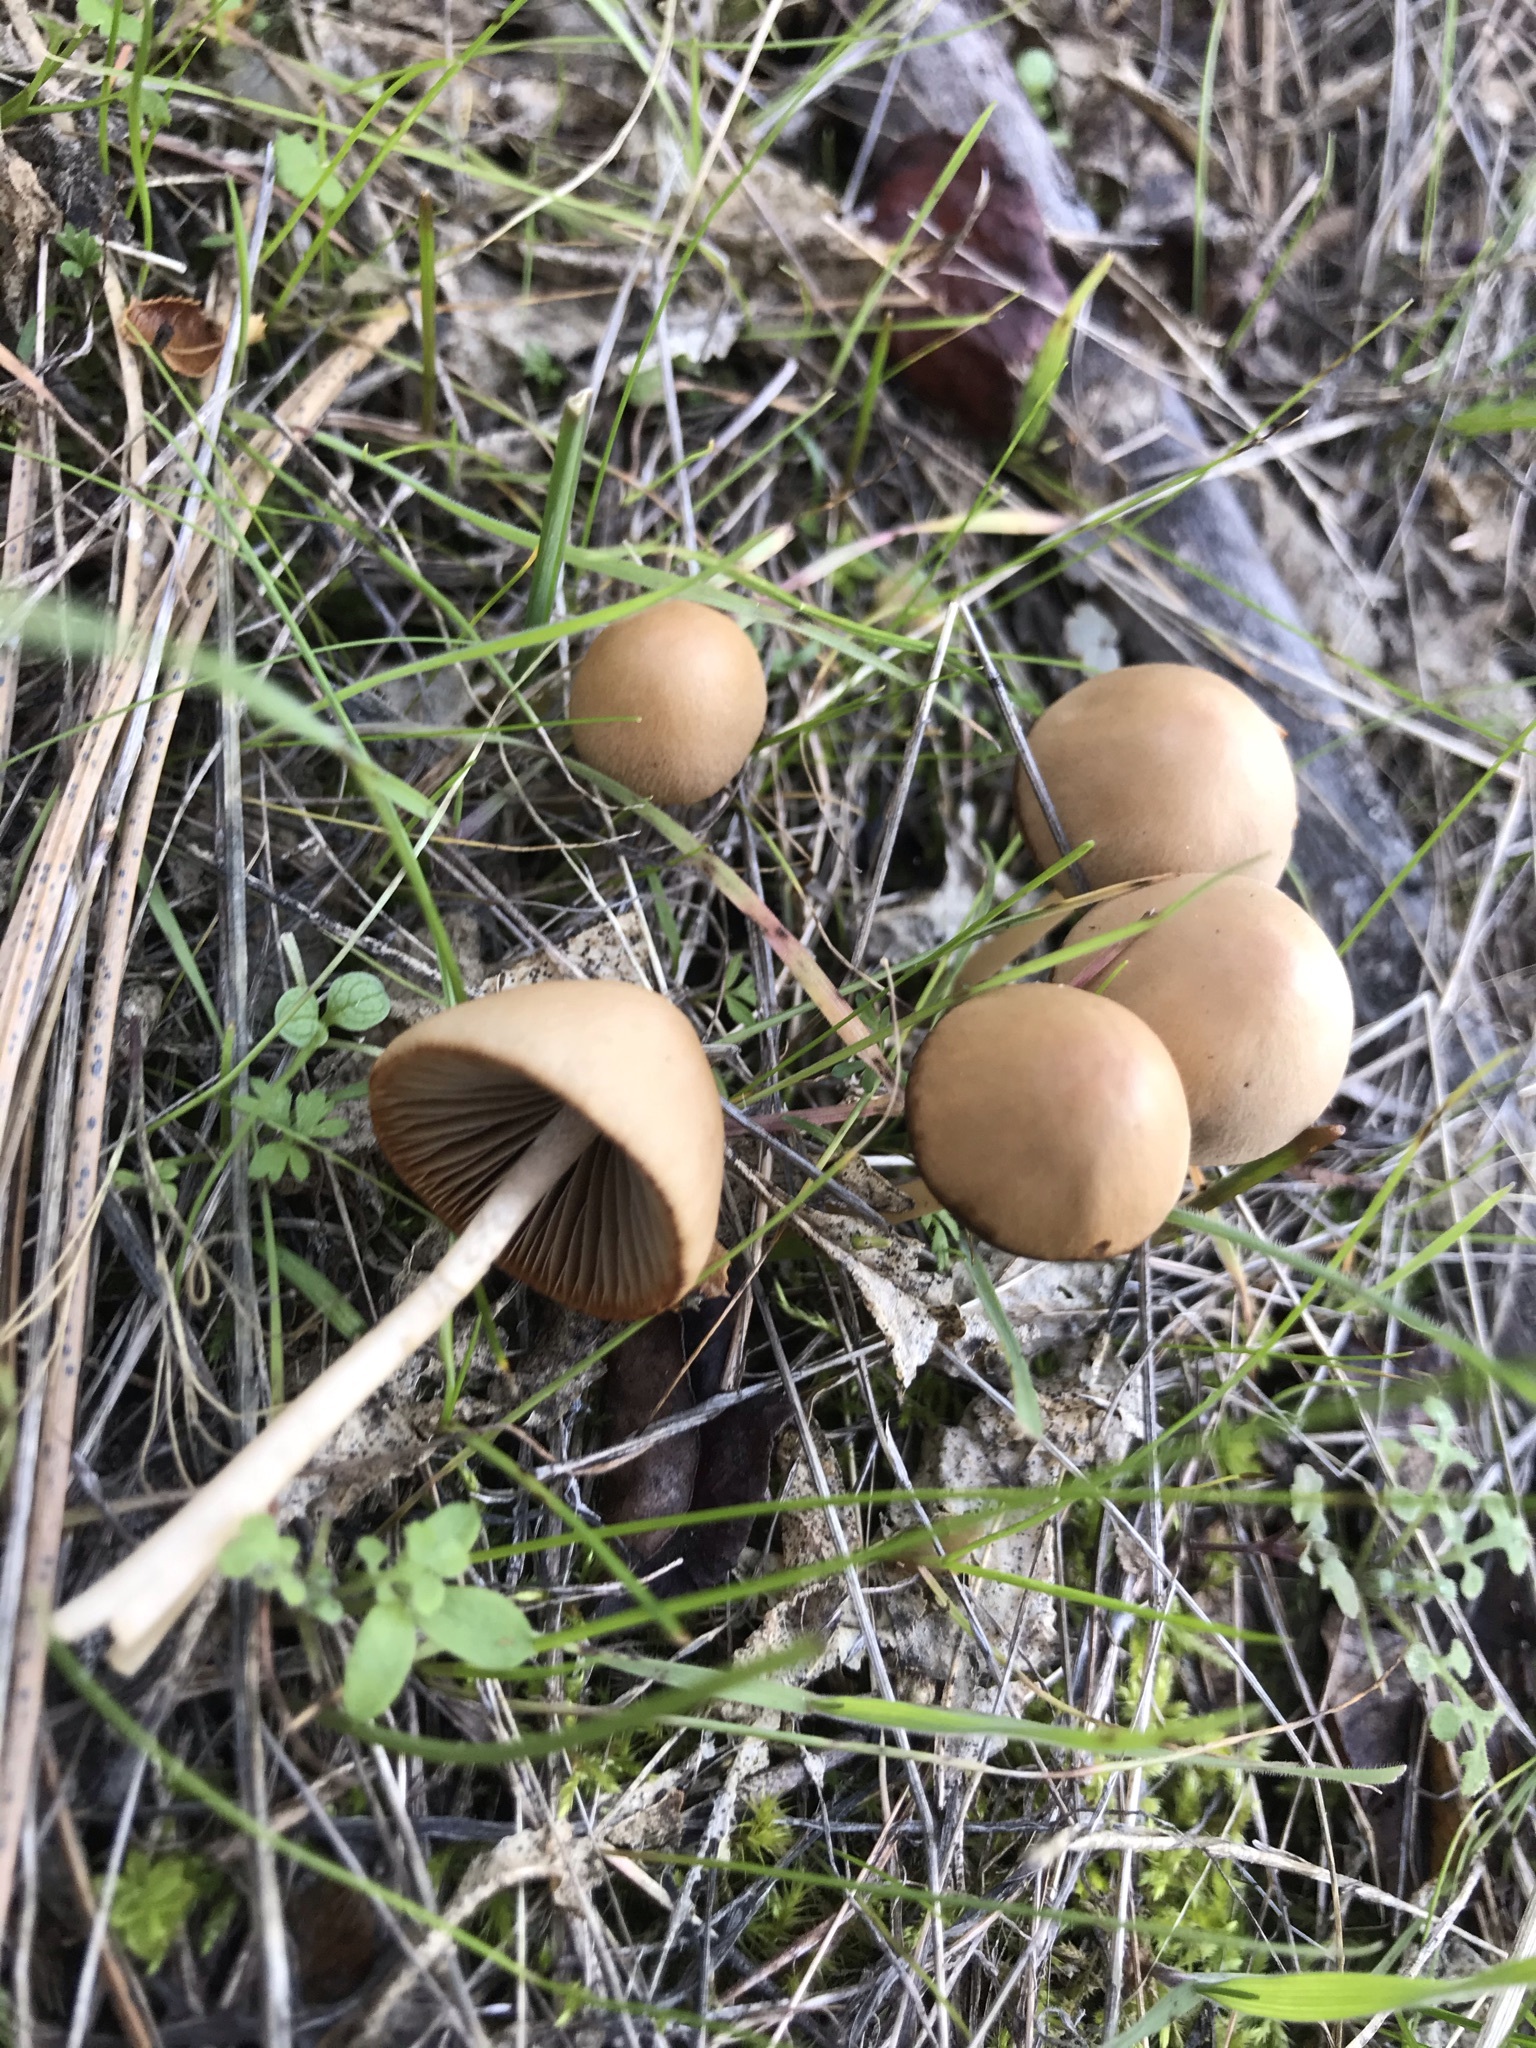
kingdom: Fungi
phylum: Basidiomycota
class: Agaricomycetes
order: Agaricales
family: Psathyrellaceae
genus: Psathyrella
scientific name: Psathyrella corrugis
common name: Red edge brittlestem
